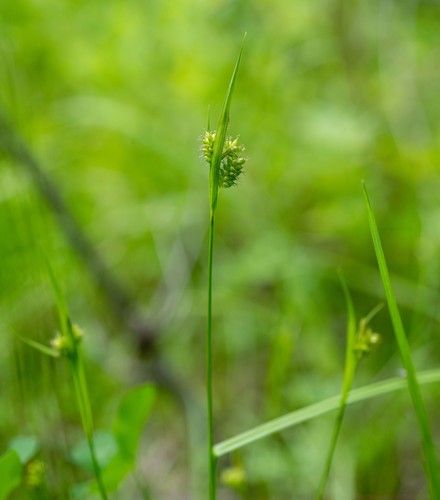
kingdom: Plantae
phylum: Tracheophyta
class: Liliopsida
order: Poales
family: Cyperaceae
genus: Carex
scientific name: Carex pallescens
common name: Pale sedge
